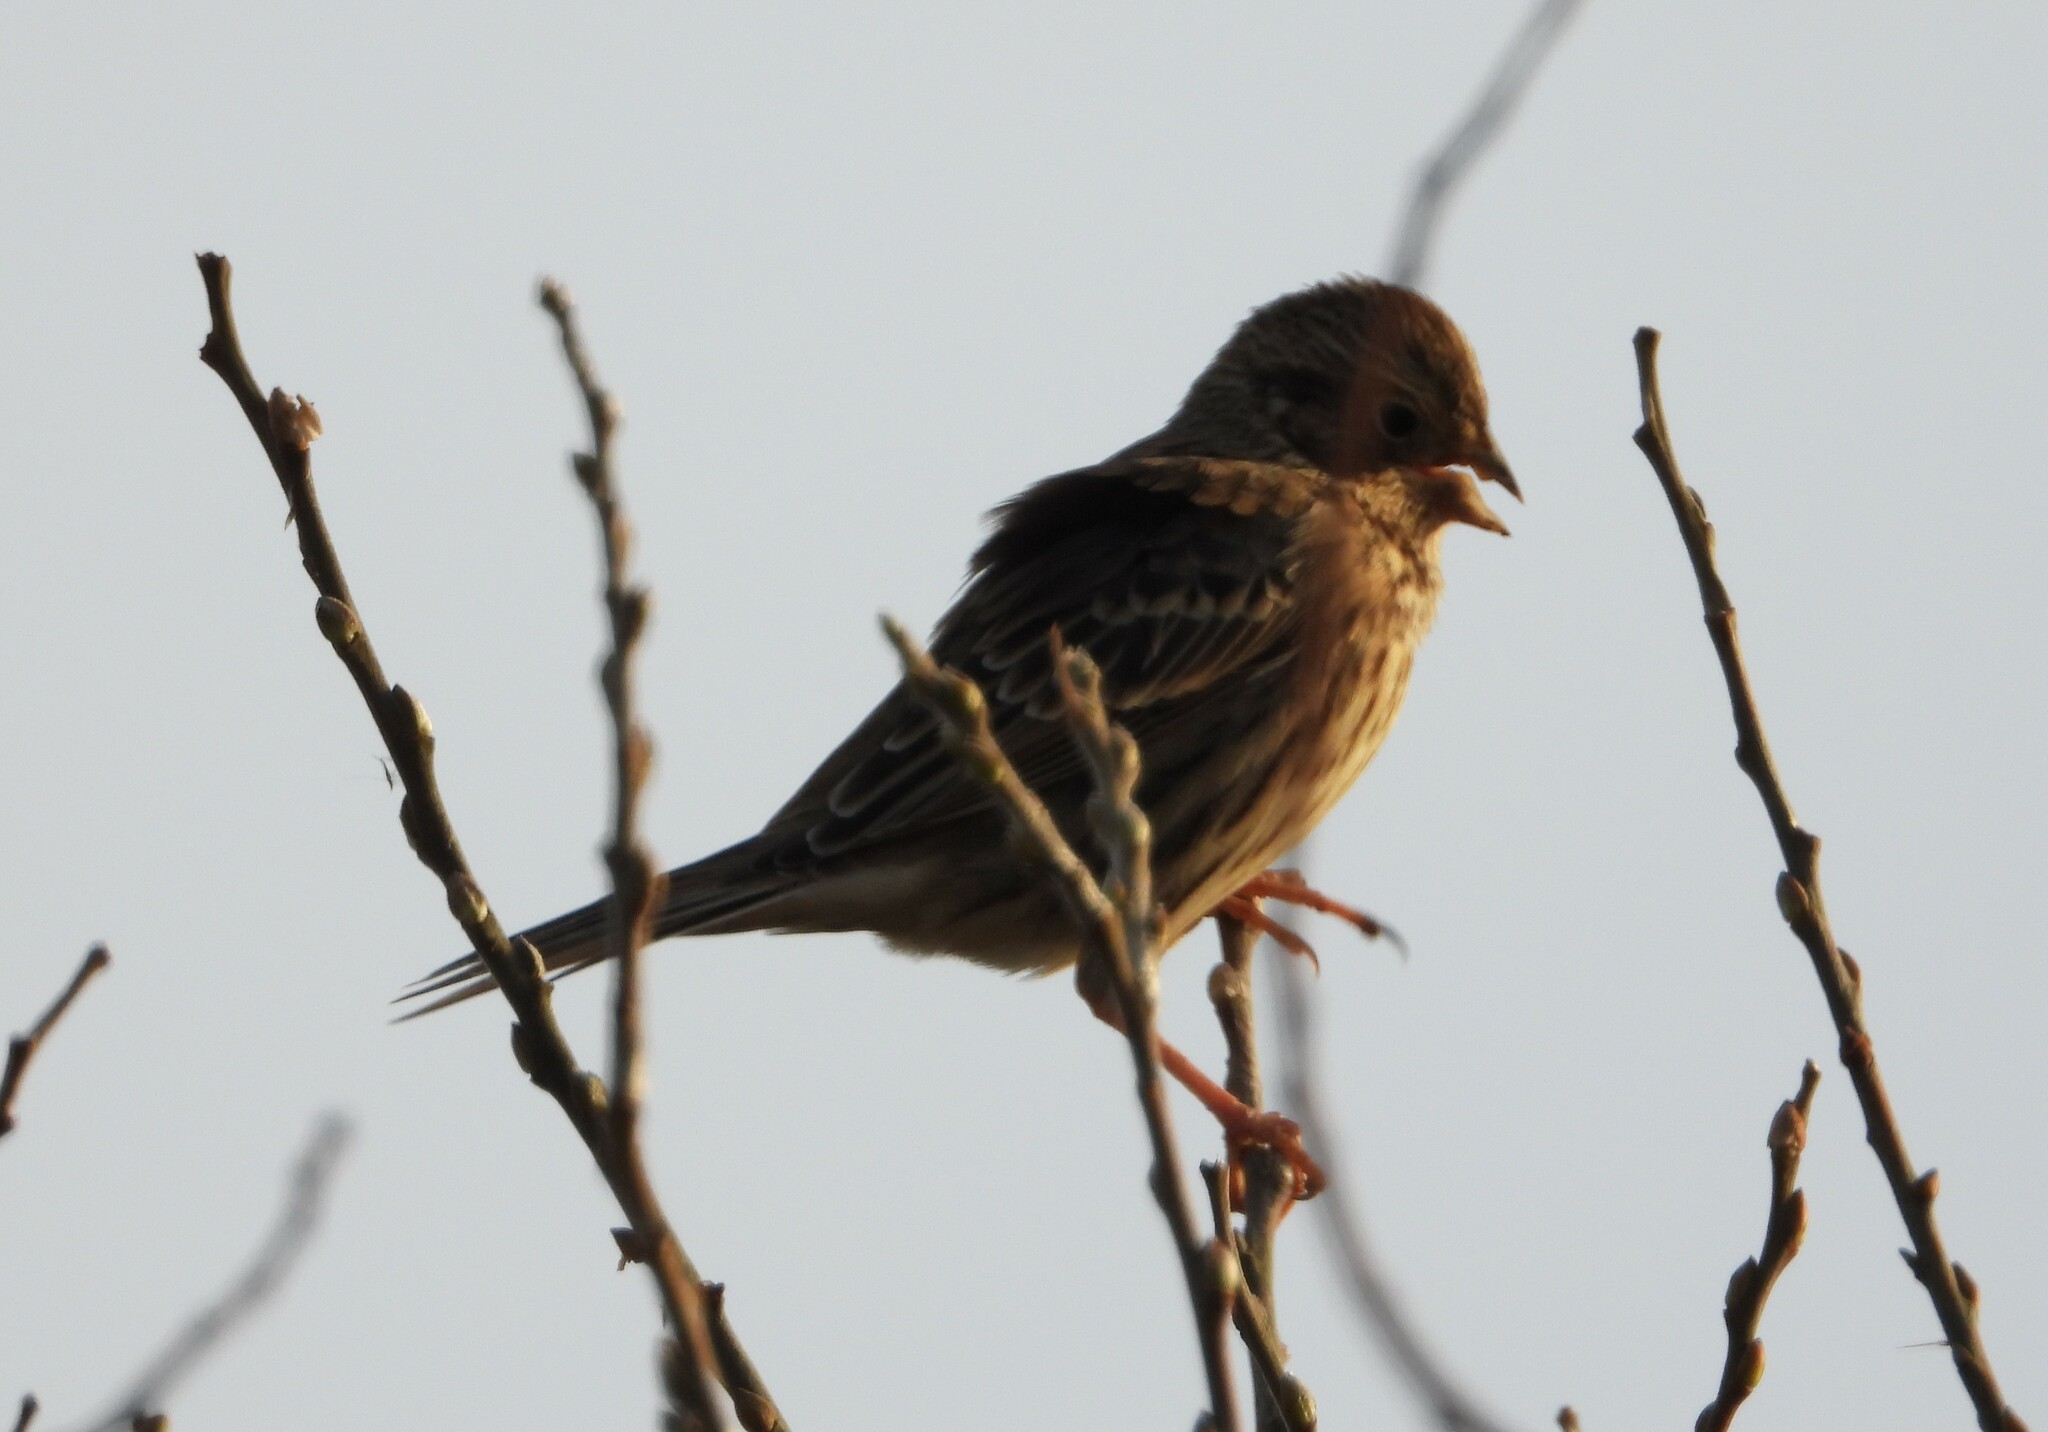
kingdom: Animalia
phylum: Chordata
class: Aves
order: Passeriformes
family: Emberizidae
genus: Emberiza
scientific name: Emberiza calandra
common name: Corn bunting
